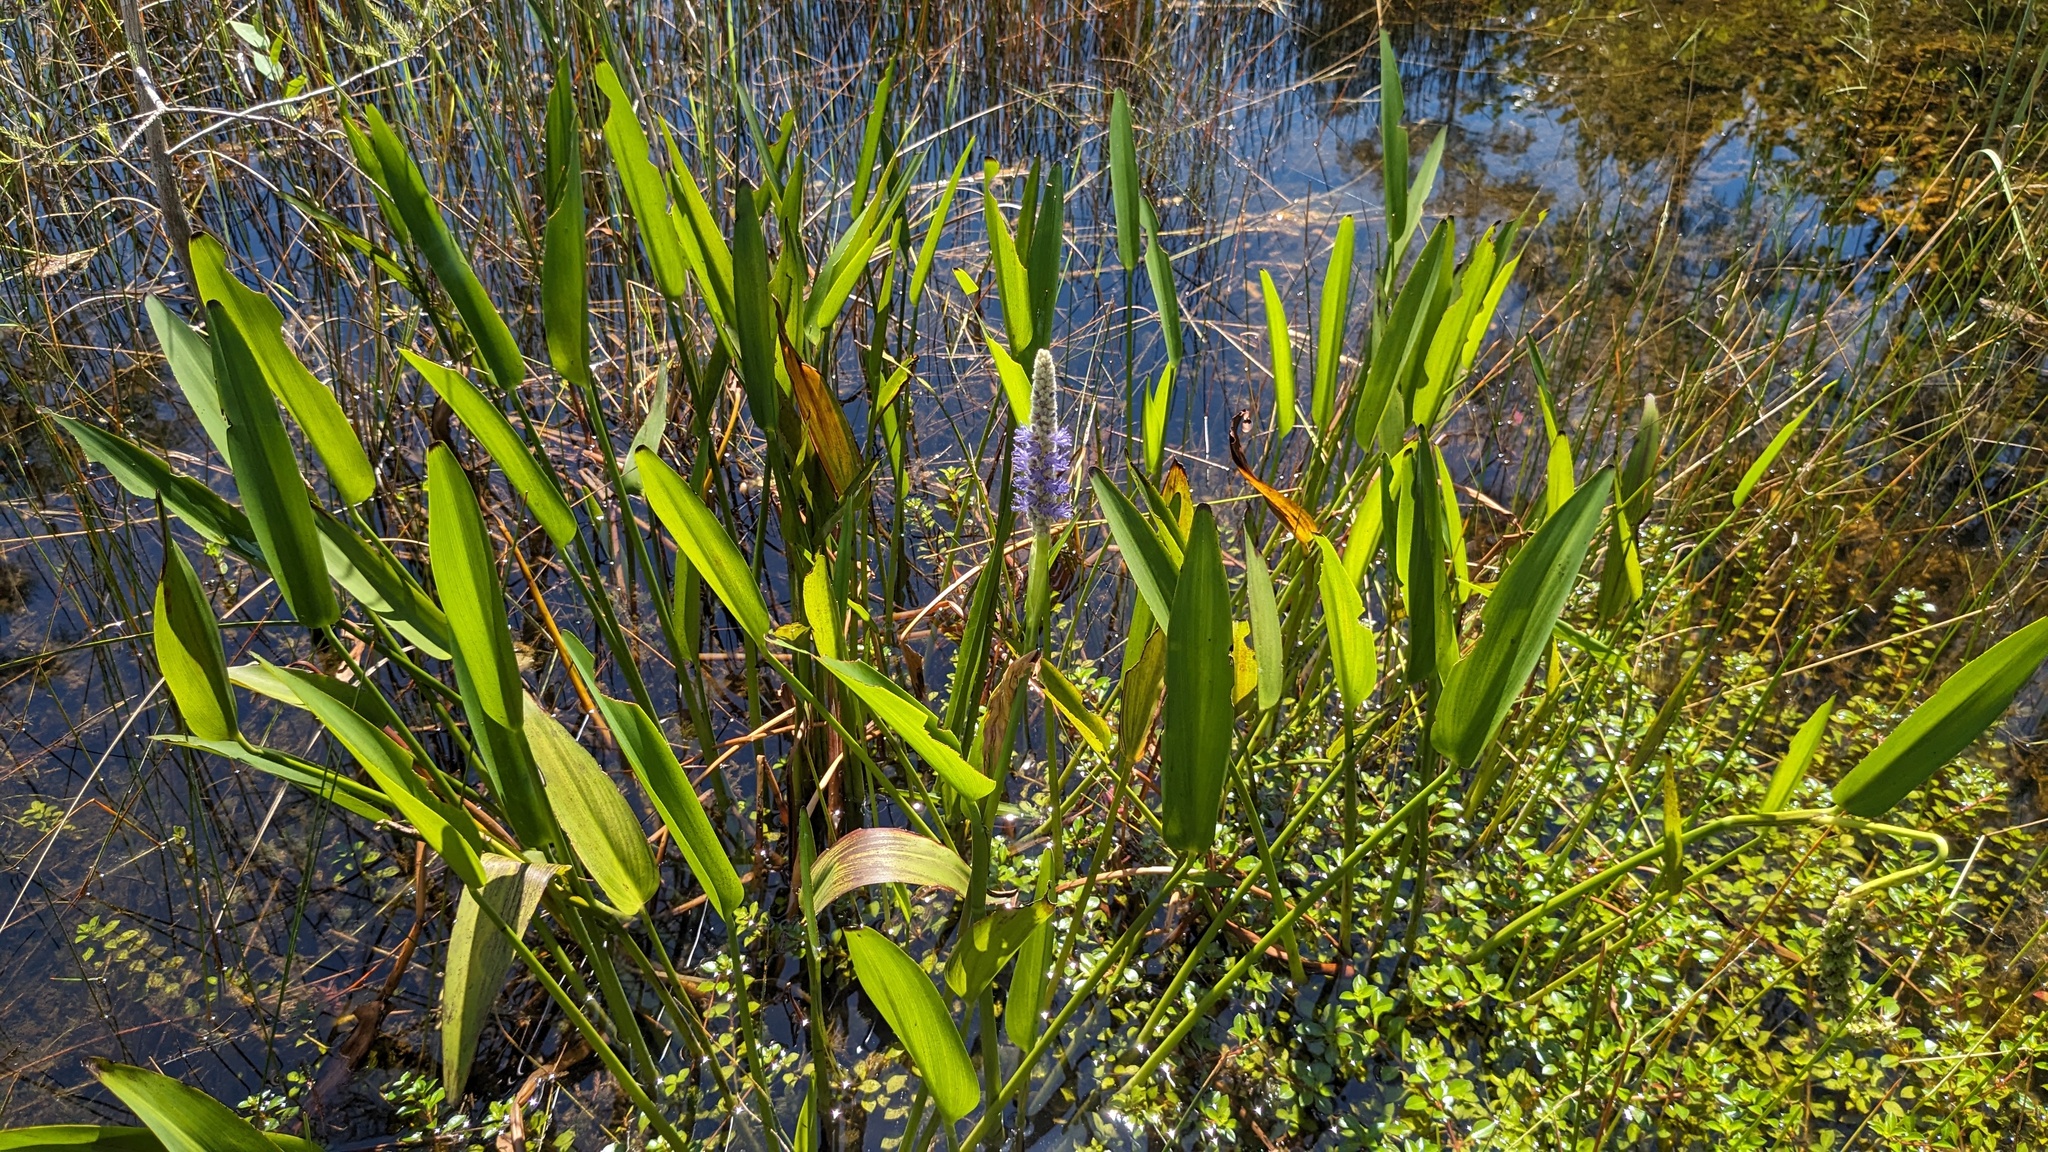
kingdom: Plantae
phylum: Tracheophyta
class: Liliopsida
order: Commelinales
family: Pontederiaceae
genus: Pontederia
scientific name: Pontederia cordata
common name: Pickerelweed
